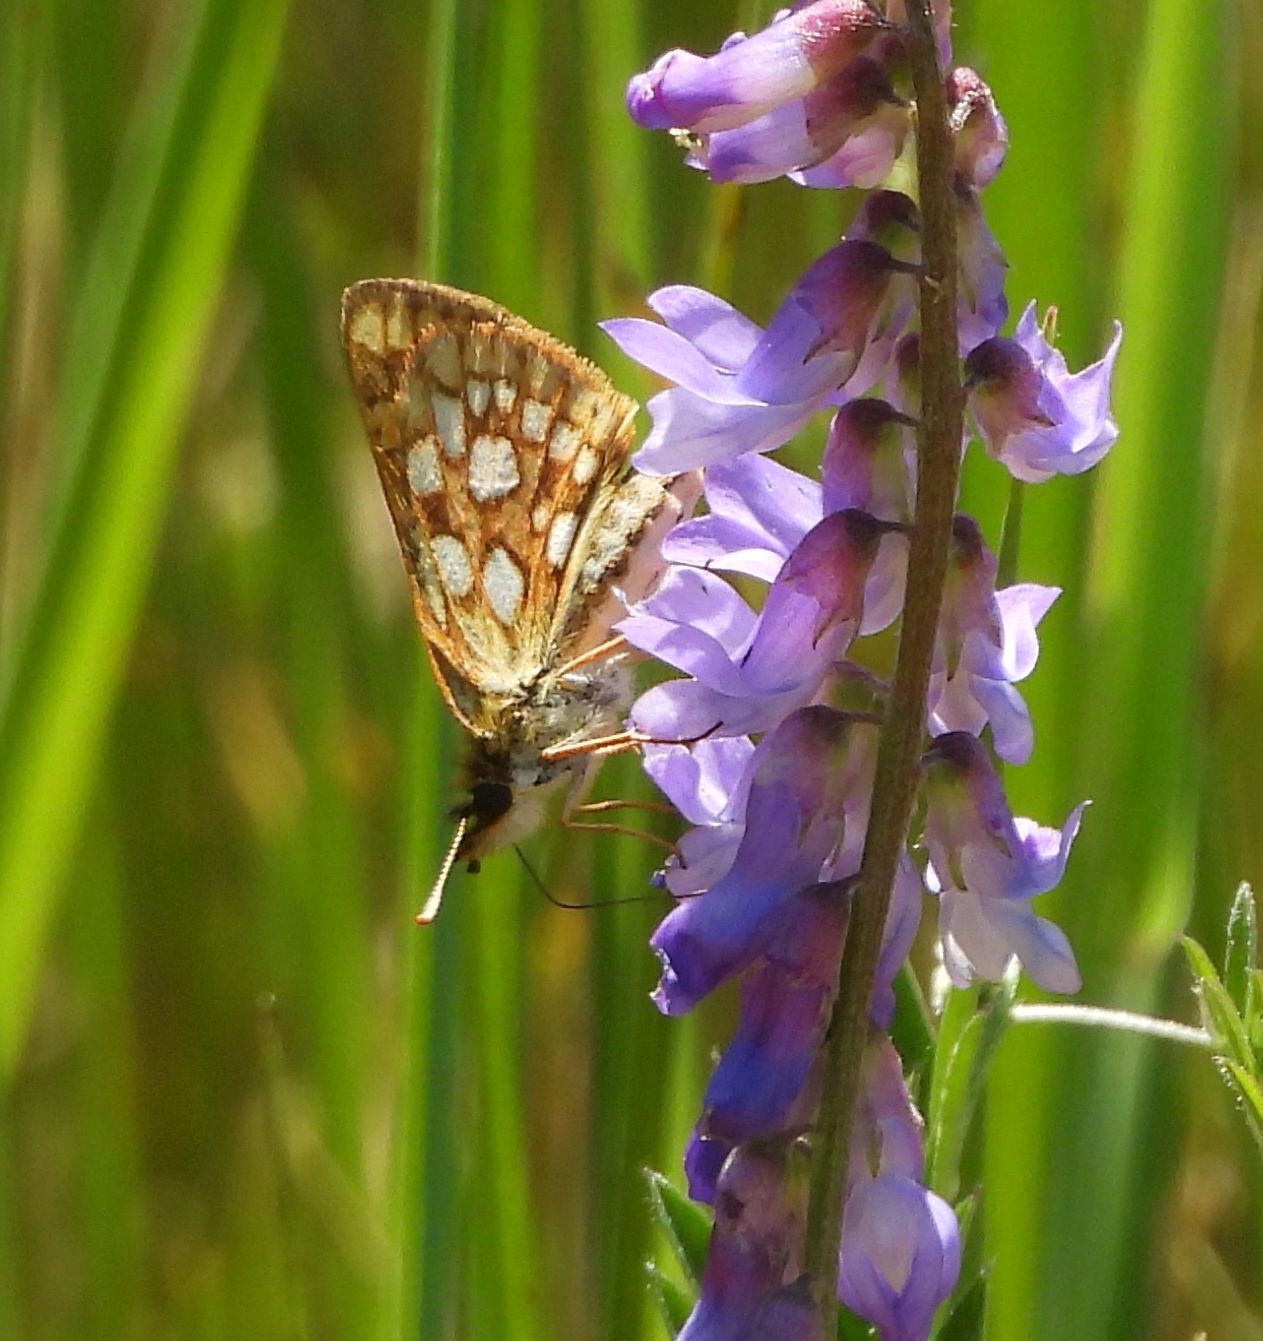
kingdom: Animalia
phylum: Arthropoda
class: Insecta
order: Lepidoptera
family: Hesperiidae
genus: Carterocephalus
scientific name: Carterocephalus mandan
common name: Arctic skipperling
